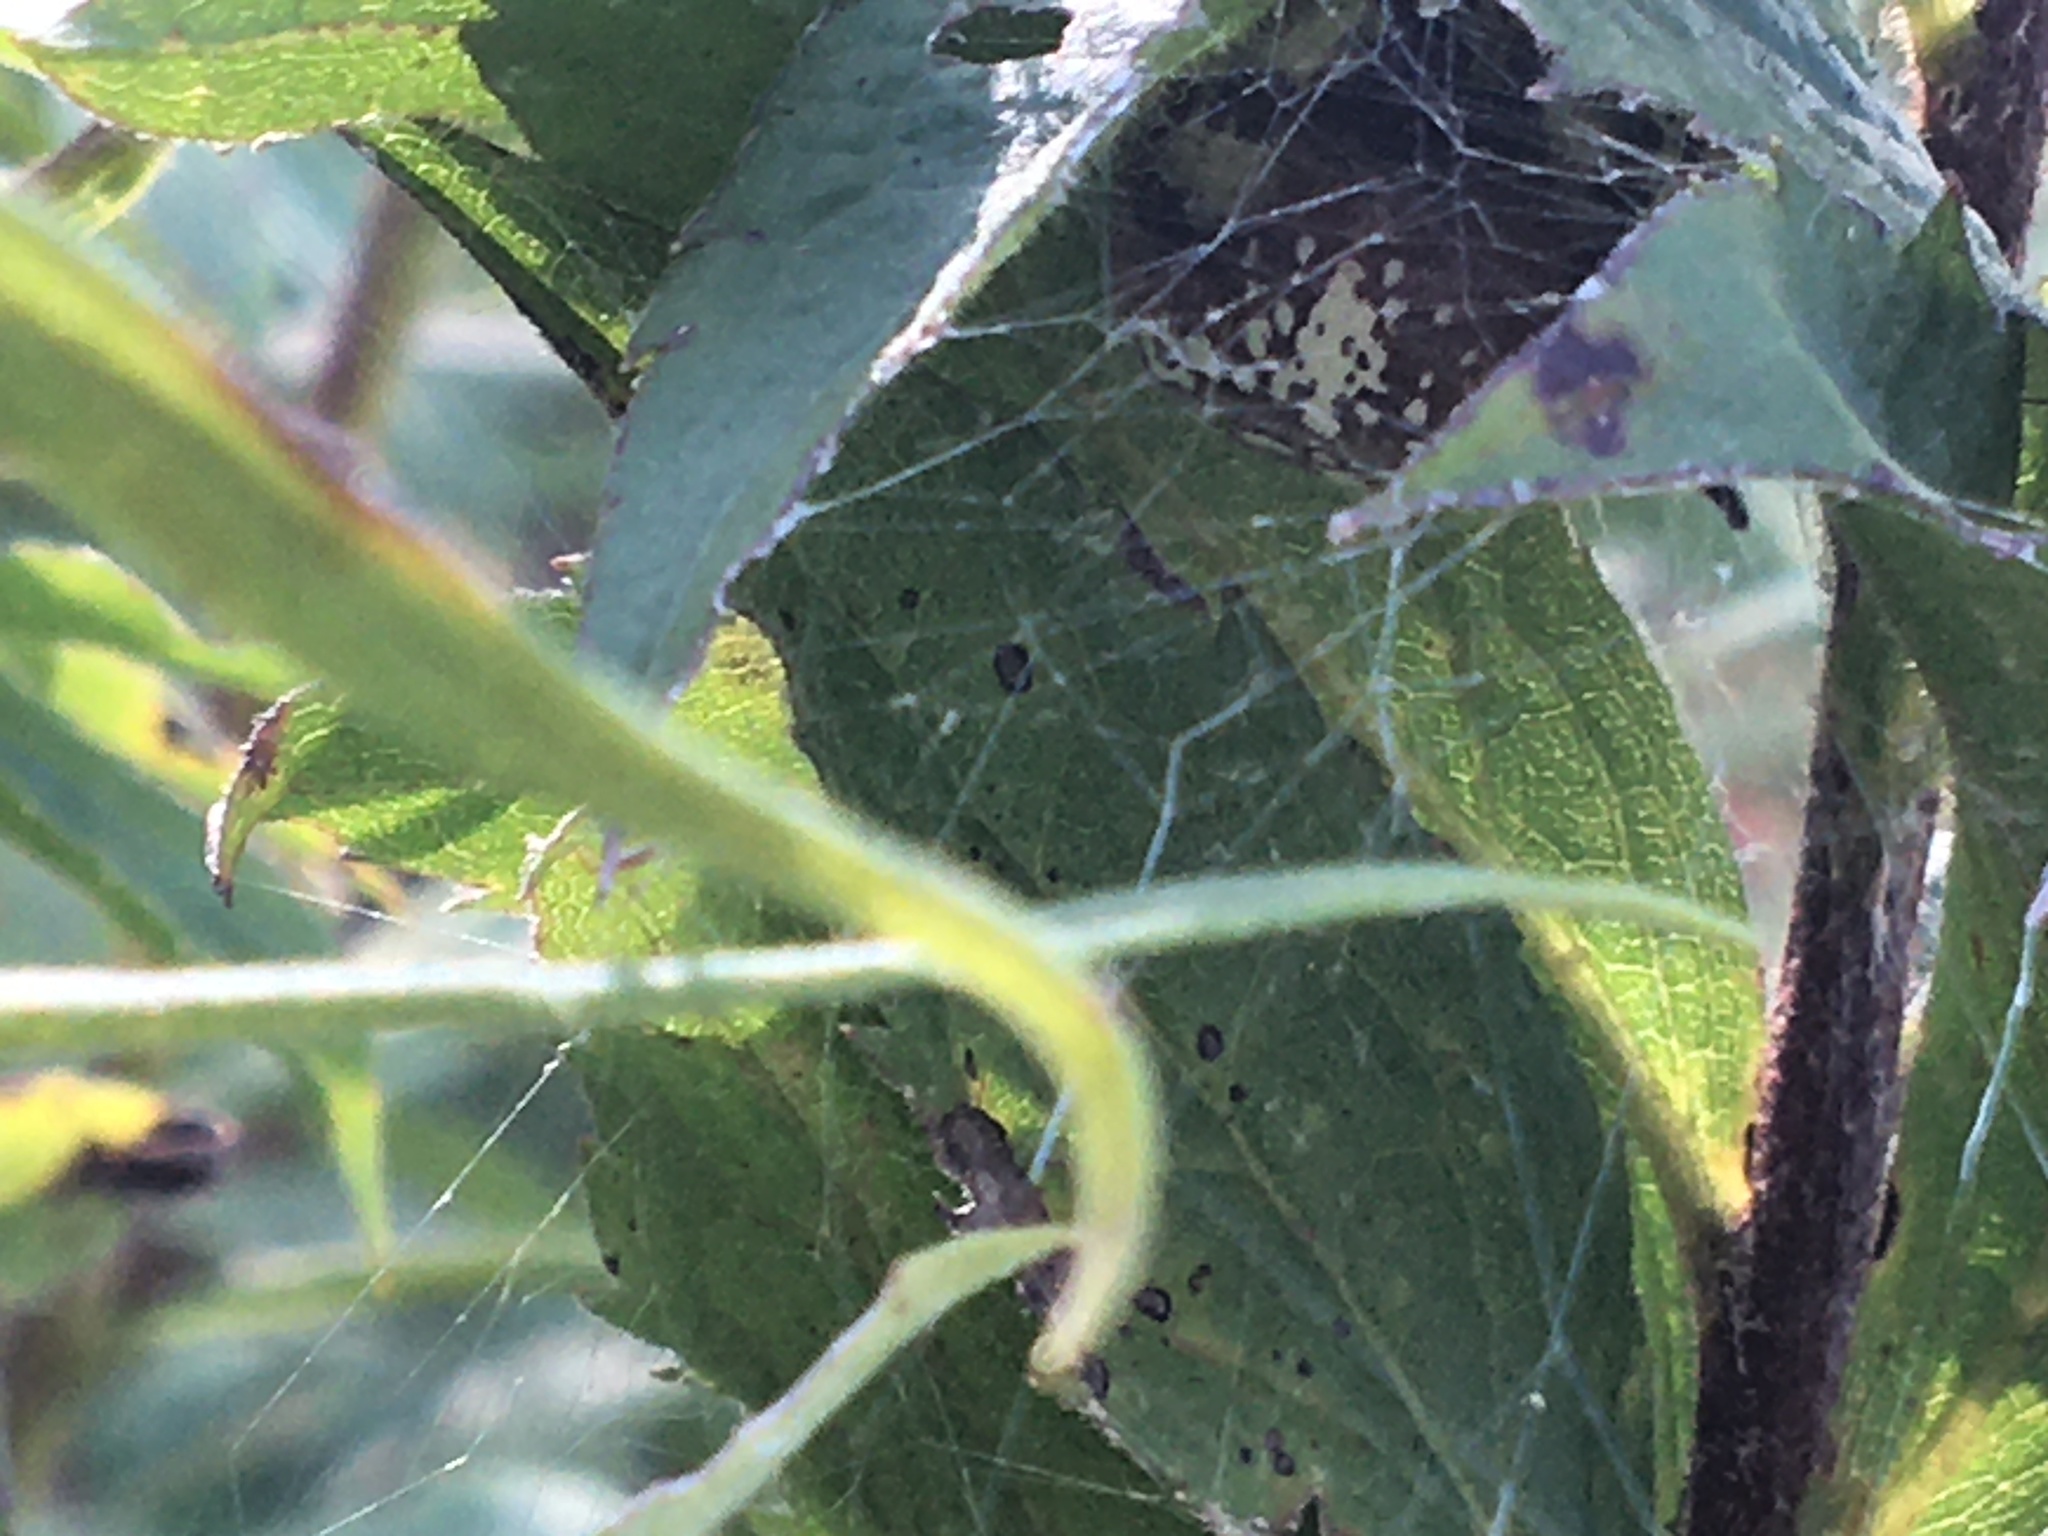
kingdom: Animalia
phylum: Arthropoda
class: Arachnida
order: Araneae
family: Araneidae
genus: Araneus
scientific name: Araneus trifolium
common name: Shamrock orbweaver
